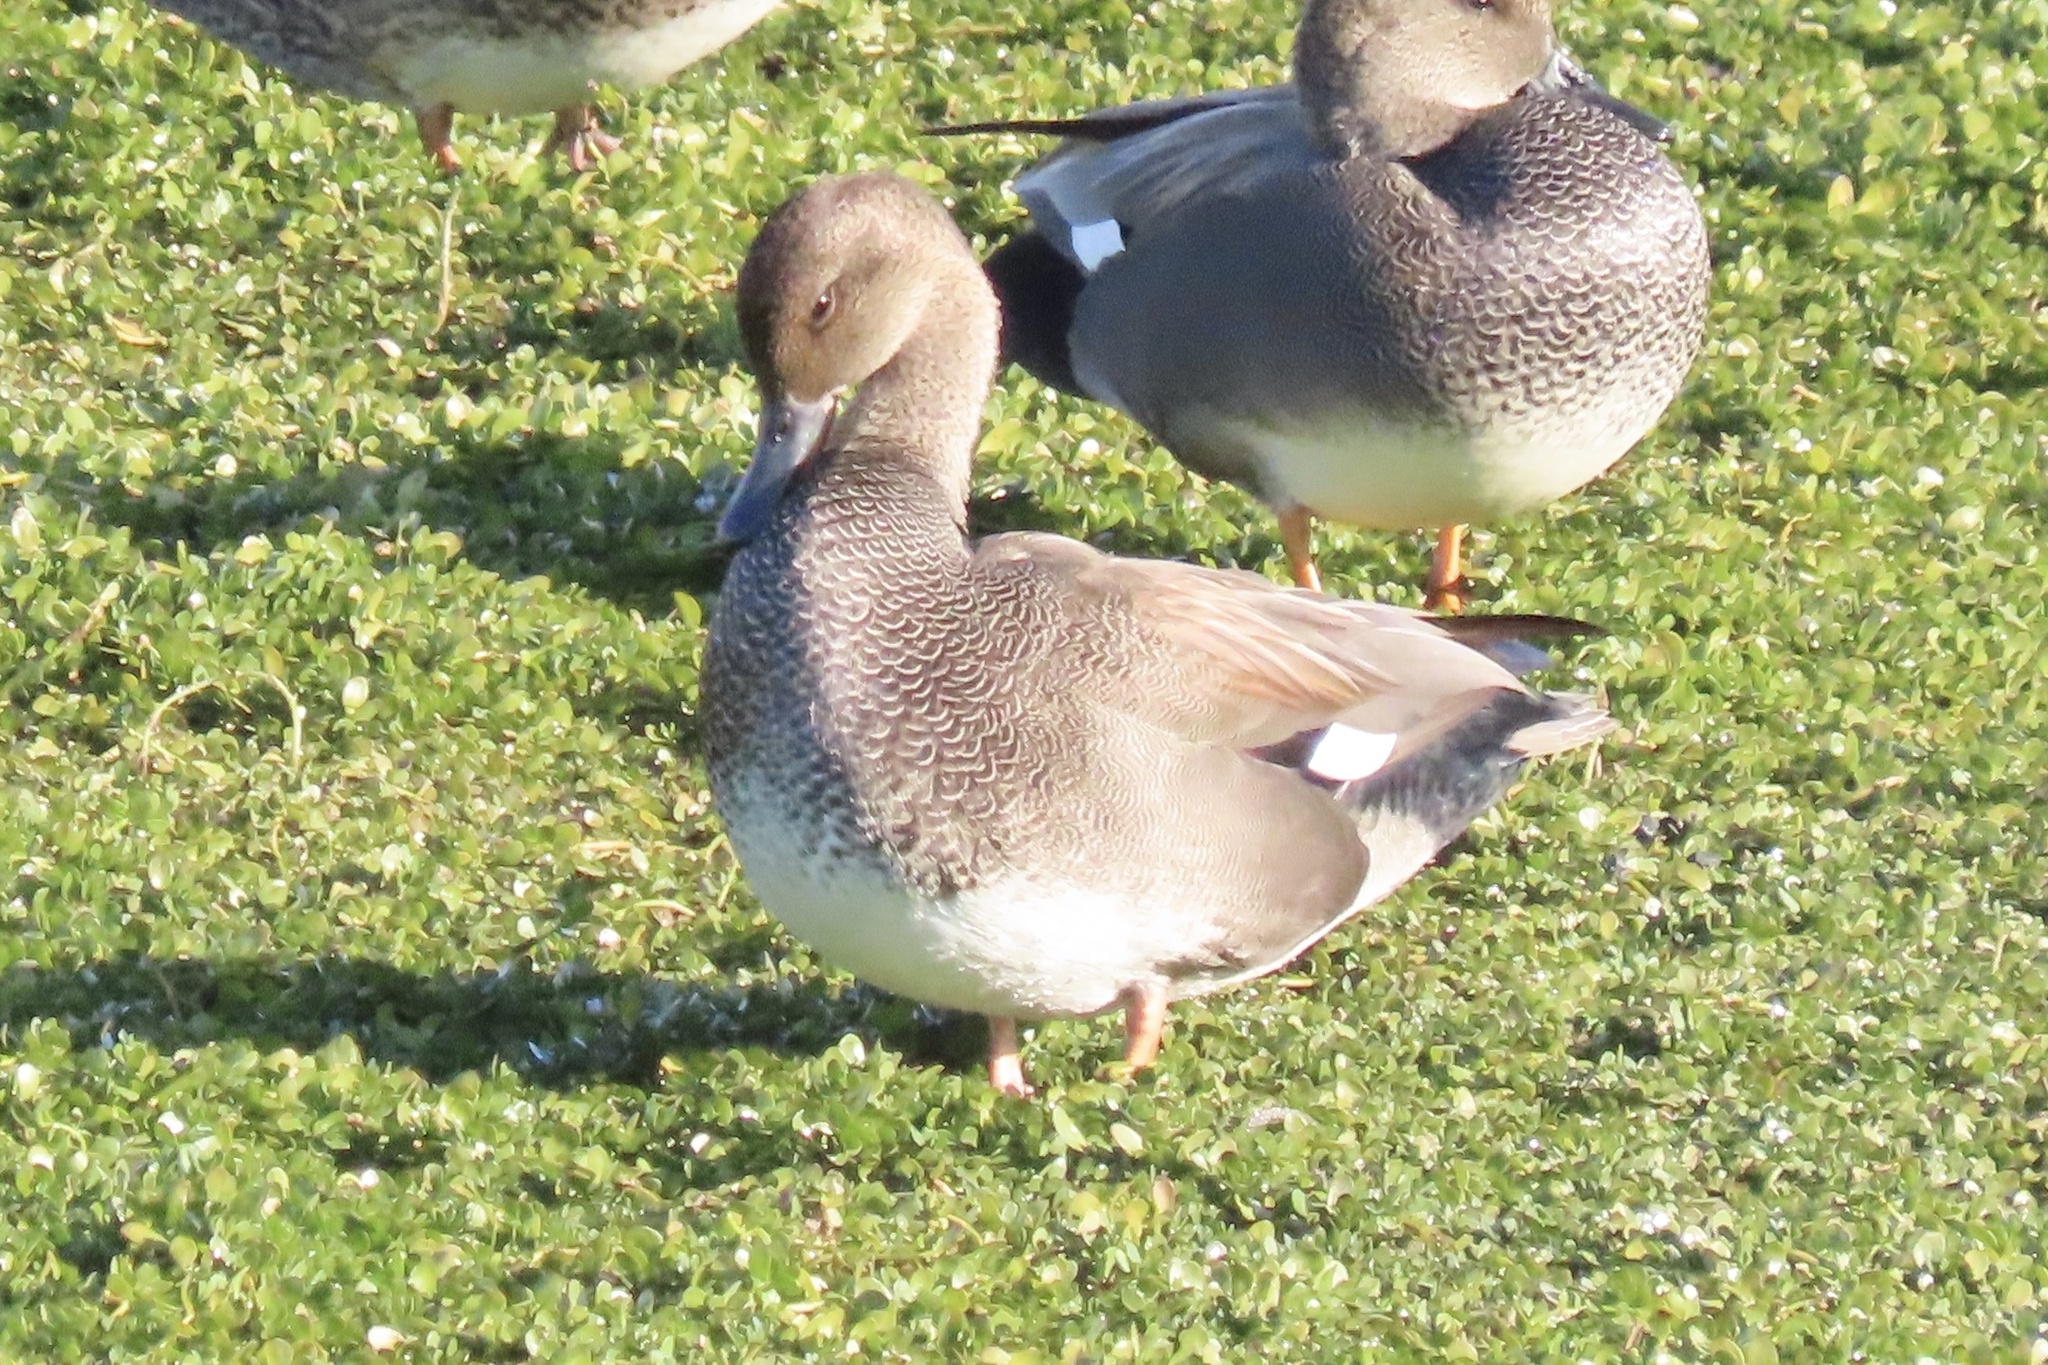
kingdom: Animalia
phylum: Chordata
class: Aves
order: Anseriformes
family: Anatidae
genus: Mareca
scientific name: Mareca strepera
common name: Gadwall
